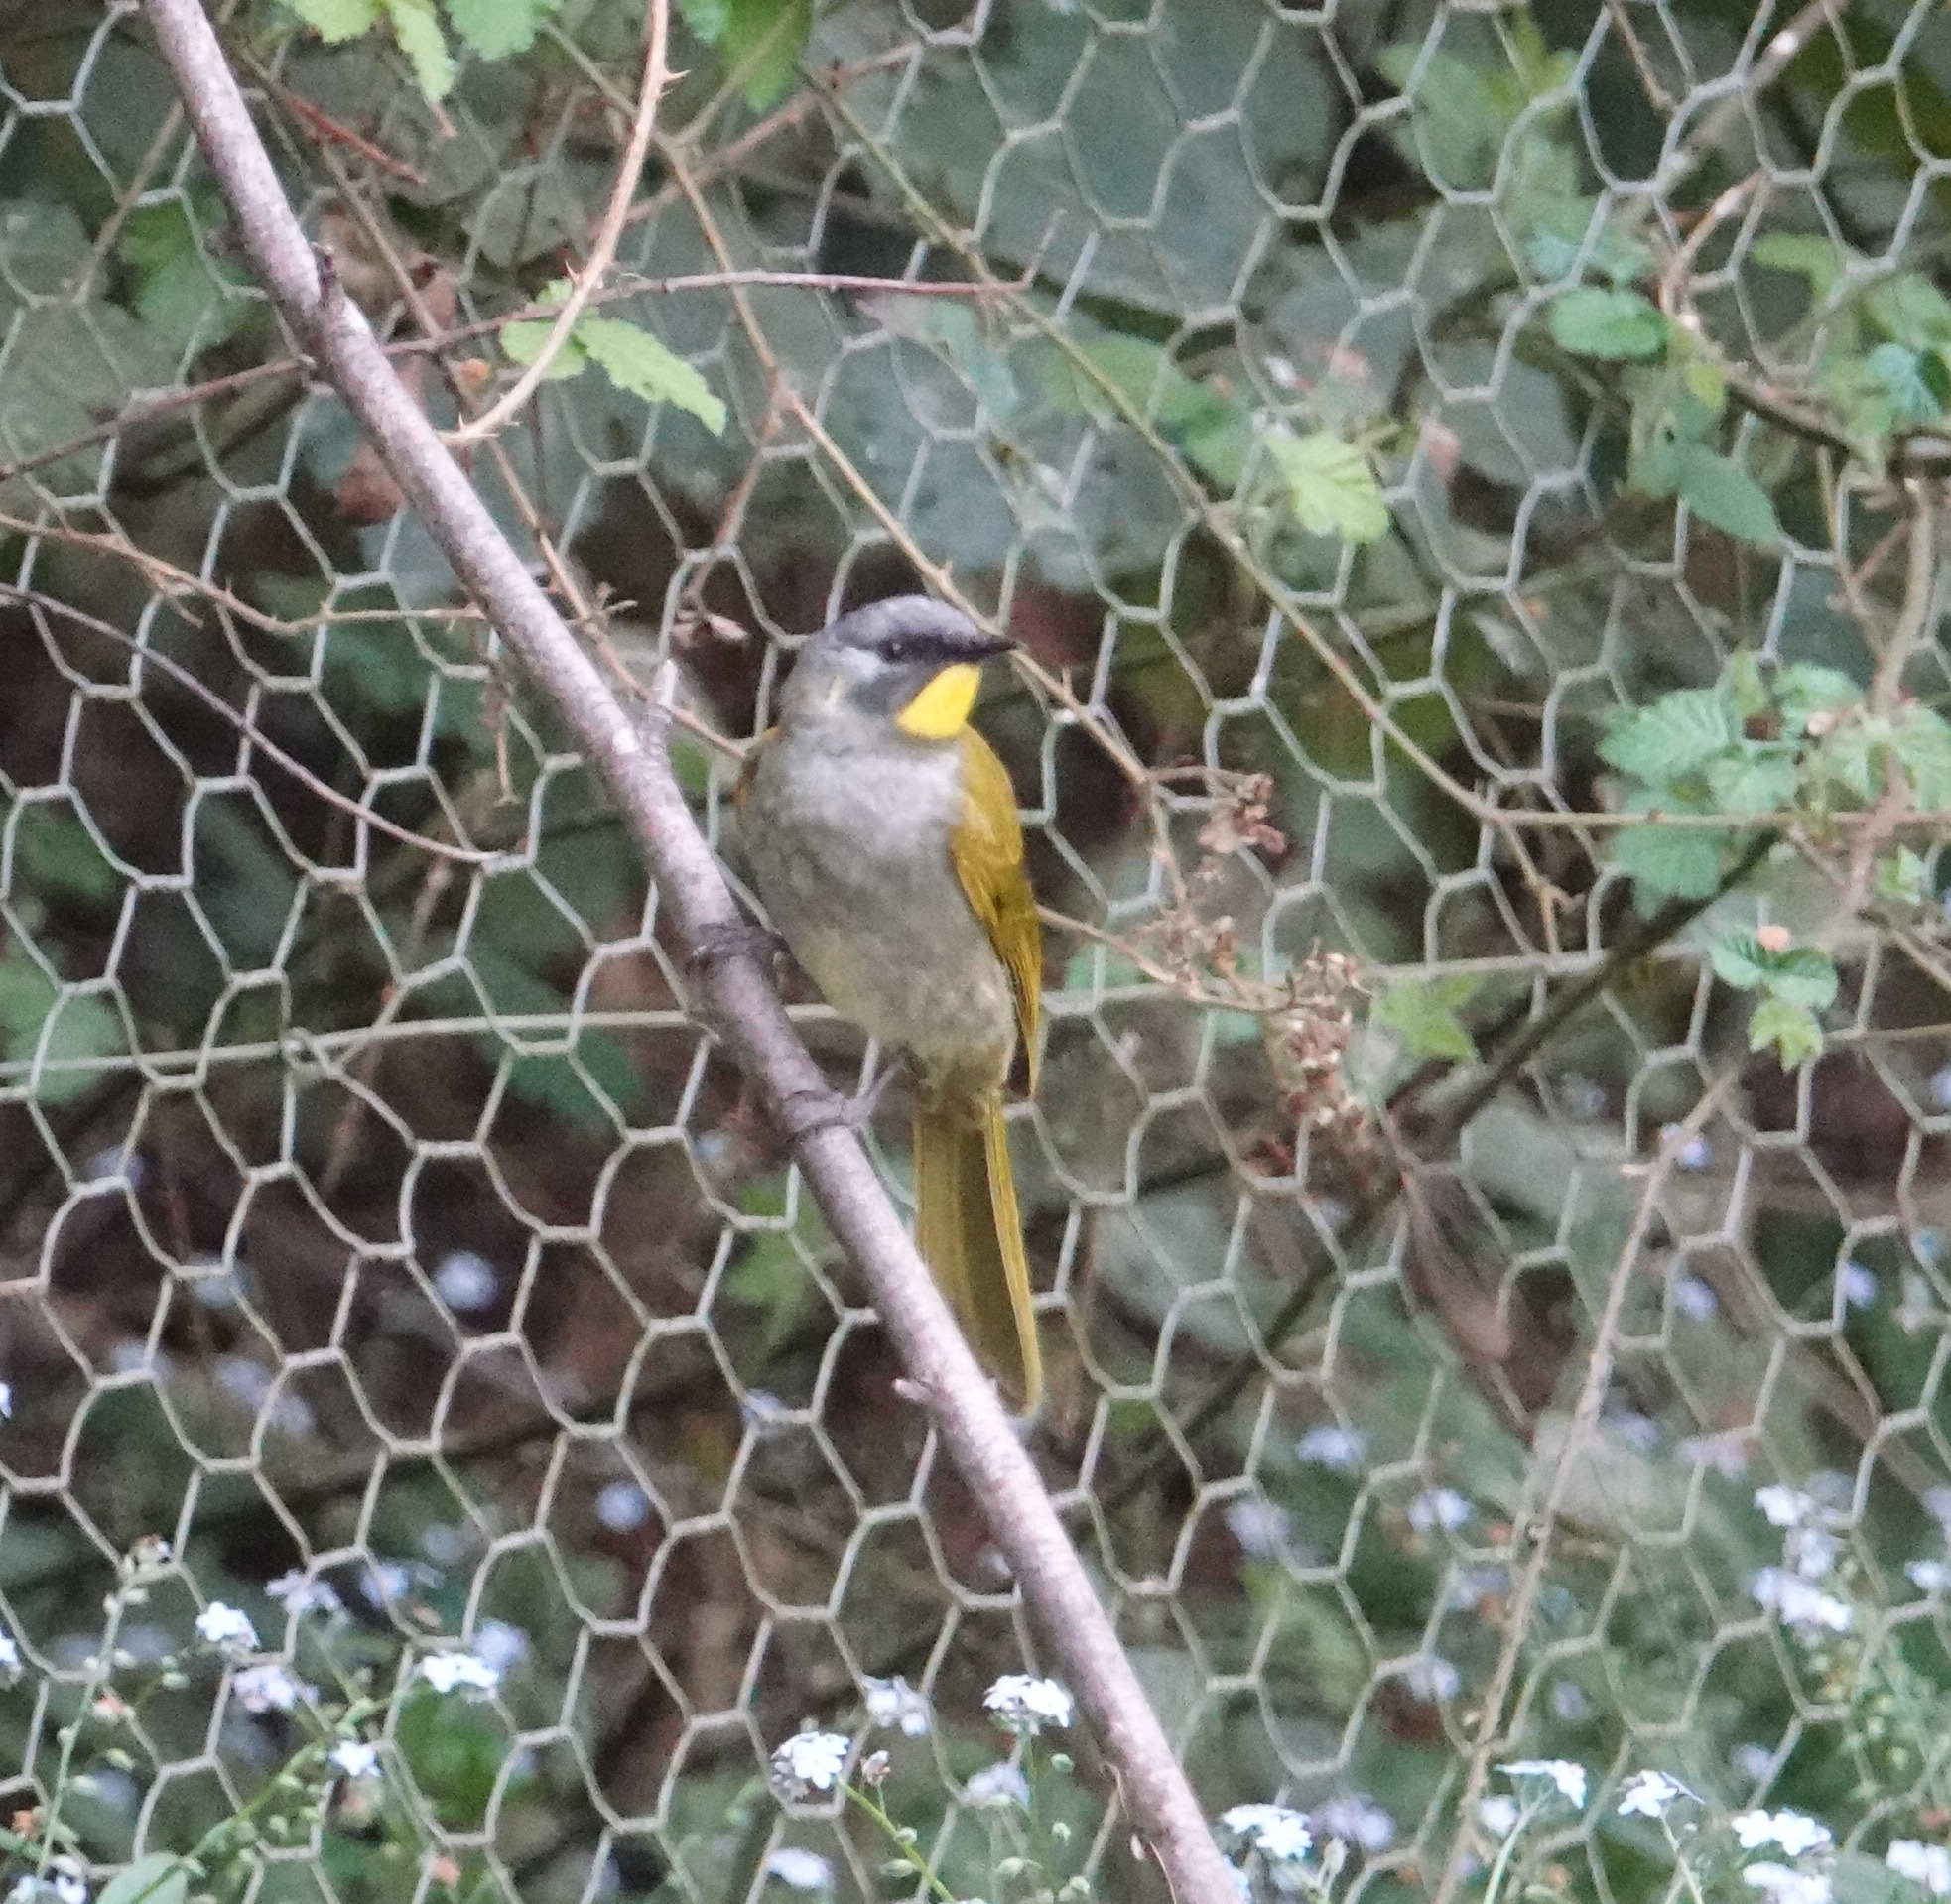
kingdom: Animalia
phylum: Chordata
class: Aves
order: Passeriformes
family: Meliphagidae
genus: Nesoptilotis
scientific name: Nesoptilotis flavicollis
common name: Yellow-throated honeyeater
